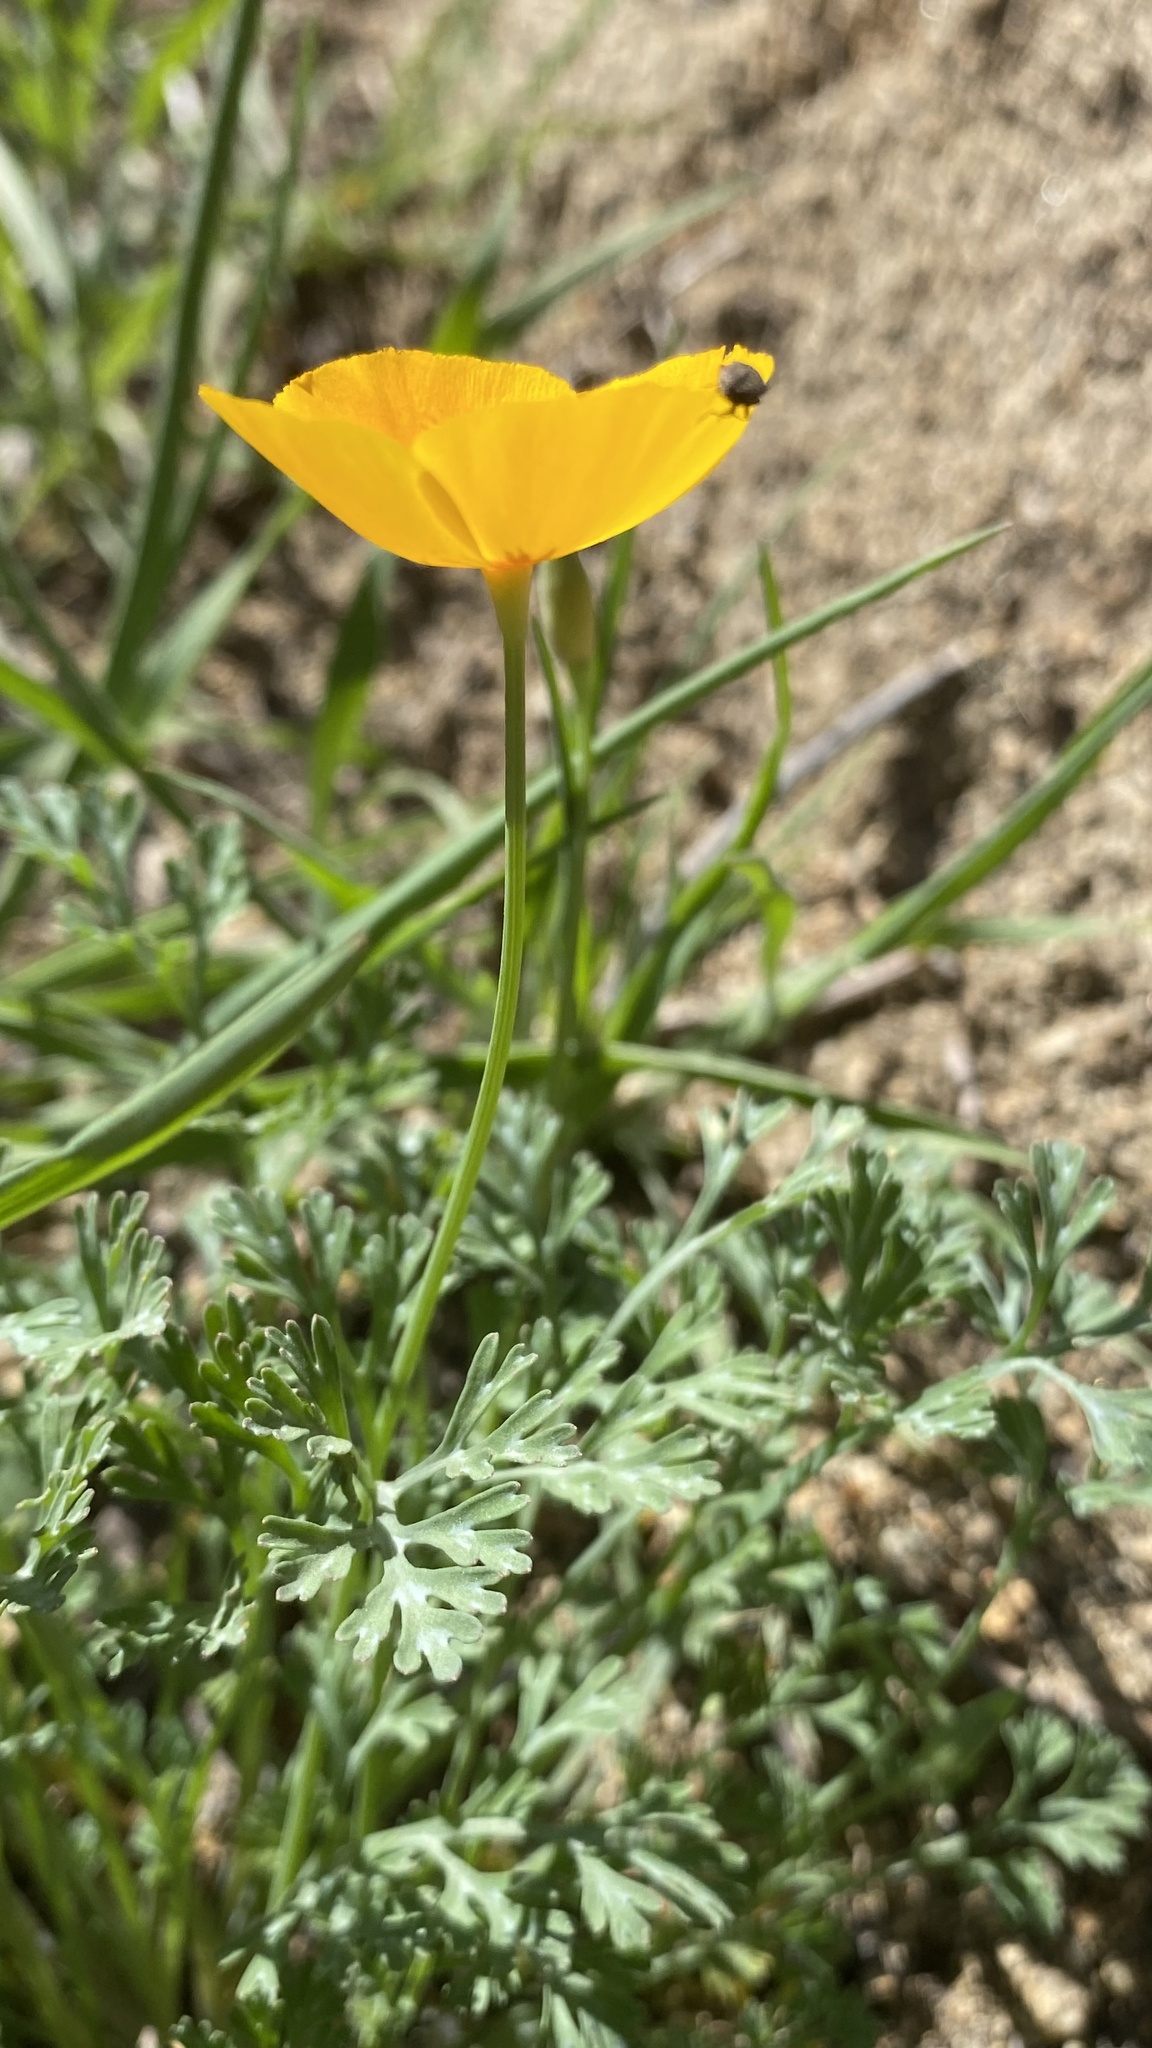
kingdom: Plantae
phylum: Tracheophyta
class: Magnoliopsida
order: Ranunculales
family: Papaveraceae
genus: Eschscholzia
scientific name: Eschscholzia caespitosa
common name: Tufted california-poppy
